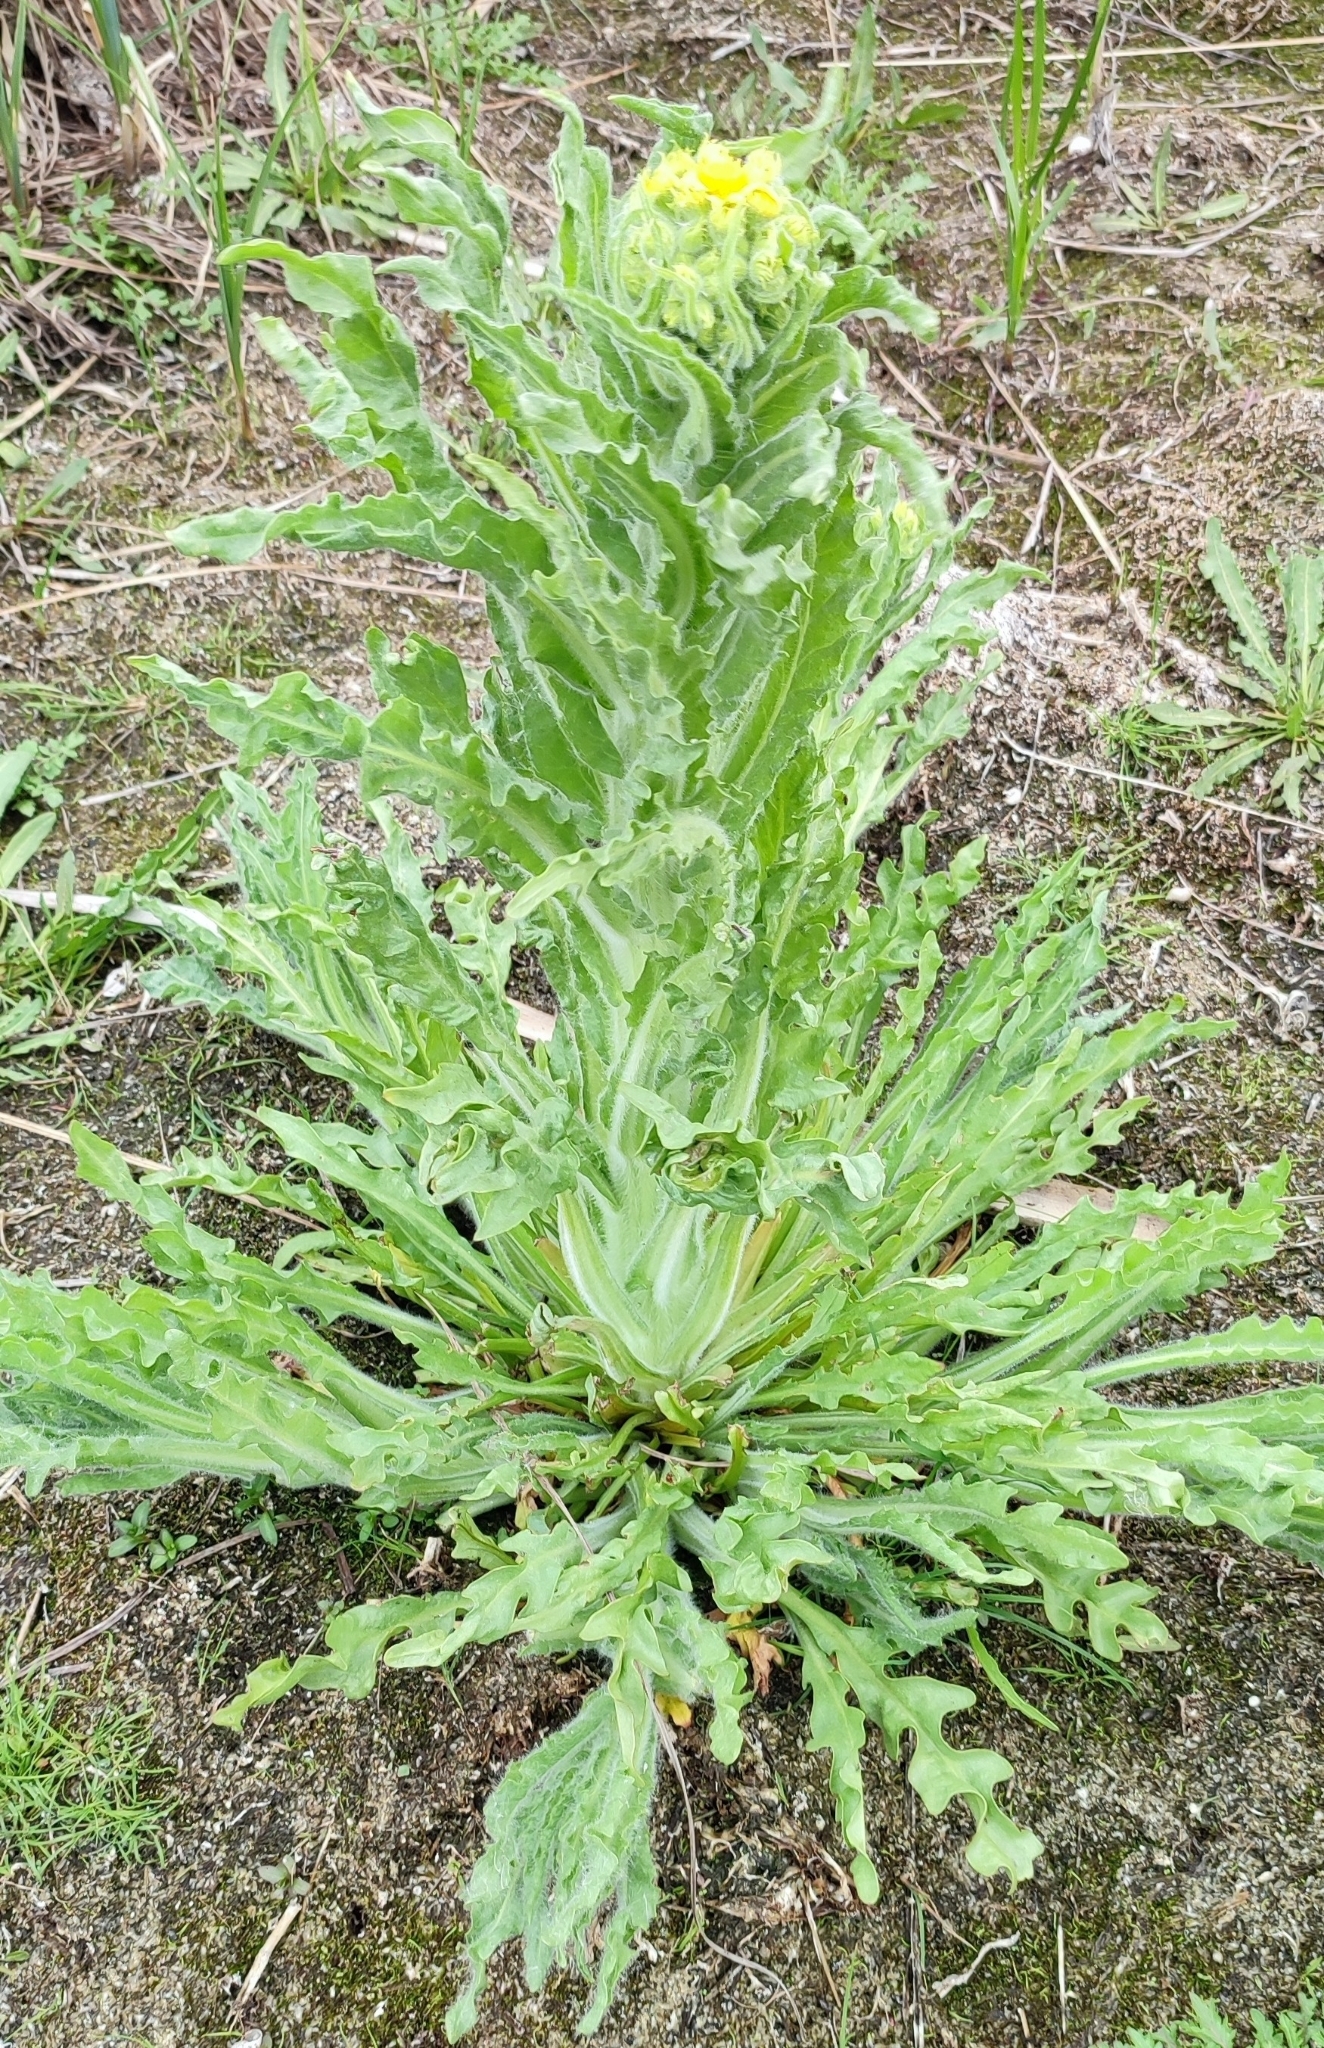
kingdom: Plantae
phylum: Tracheophyta
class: Magnoliopsida
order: Asterales
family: Asteraceae
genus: Tephroseris
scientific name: Tephroseris palustris
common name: Marsh fleawort
